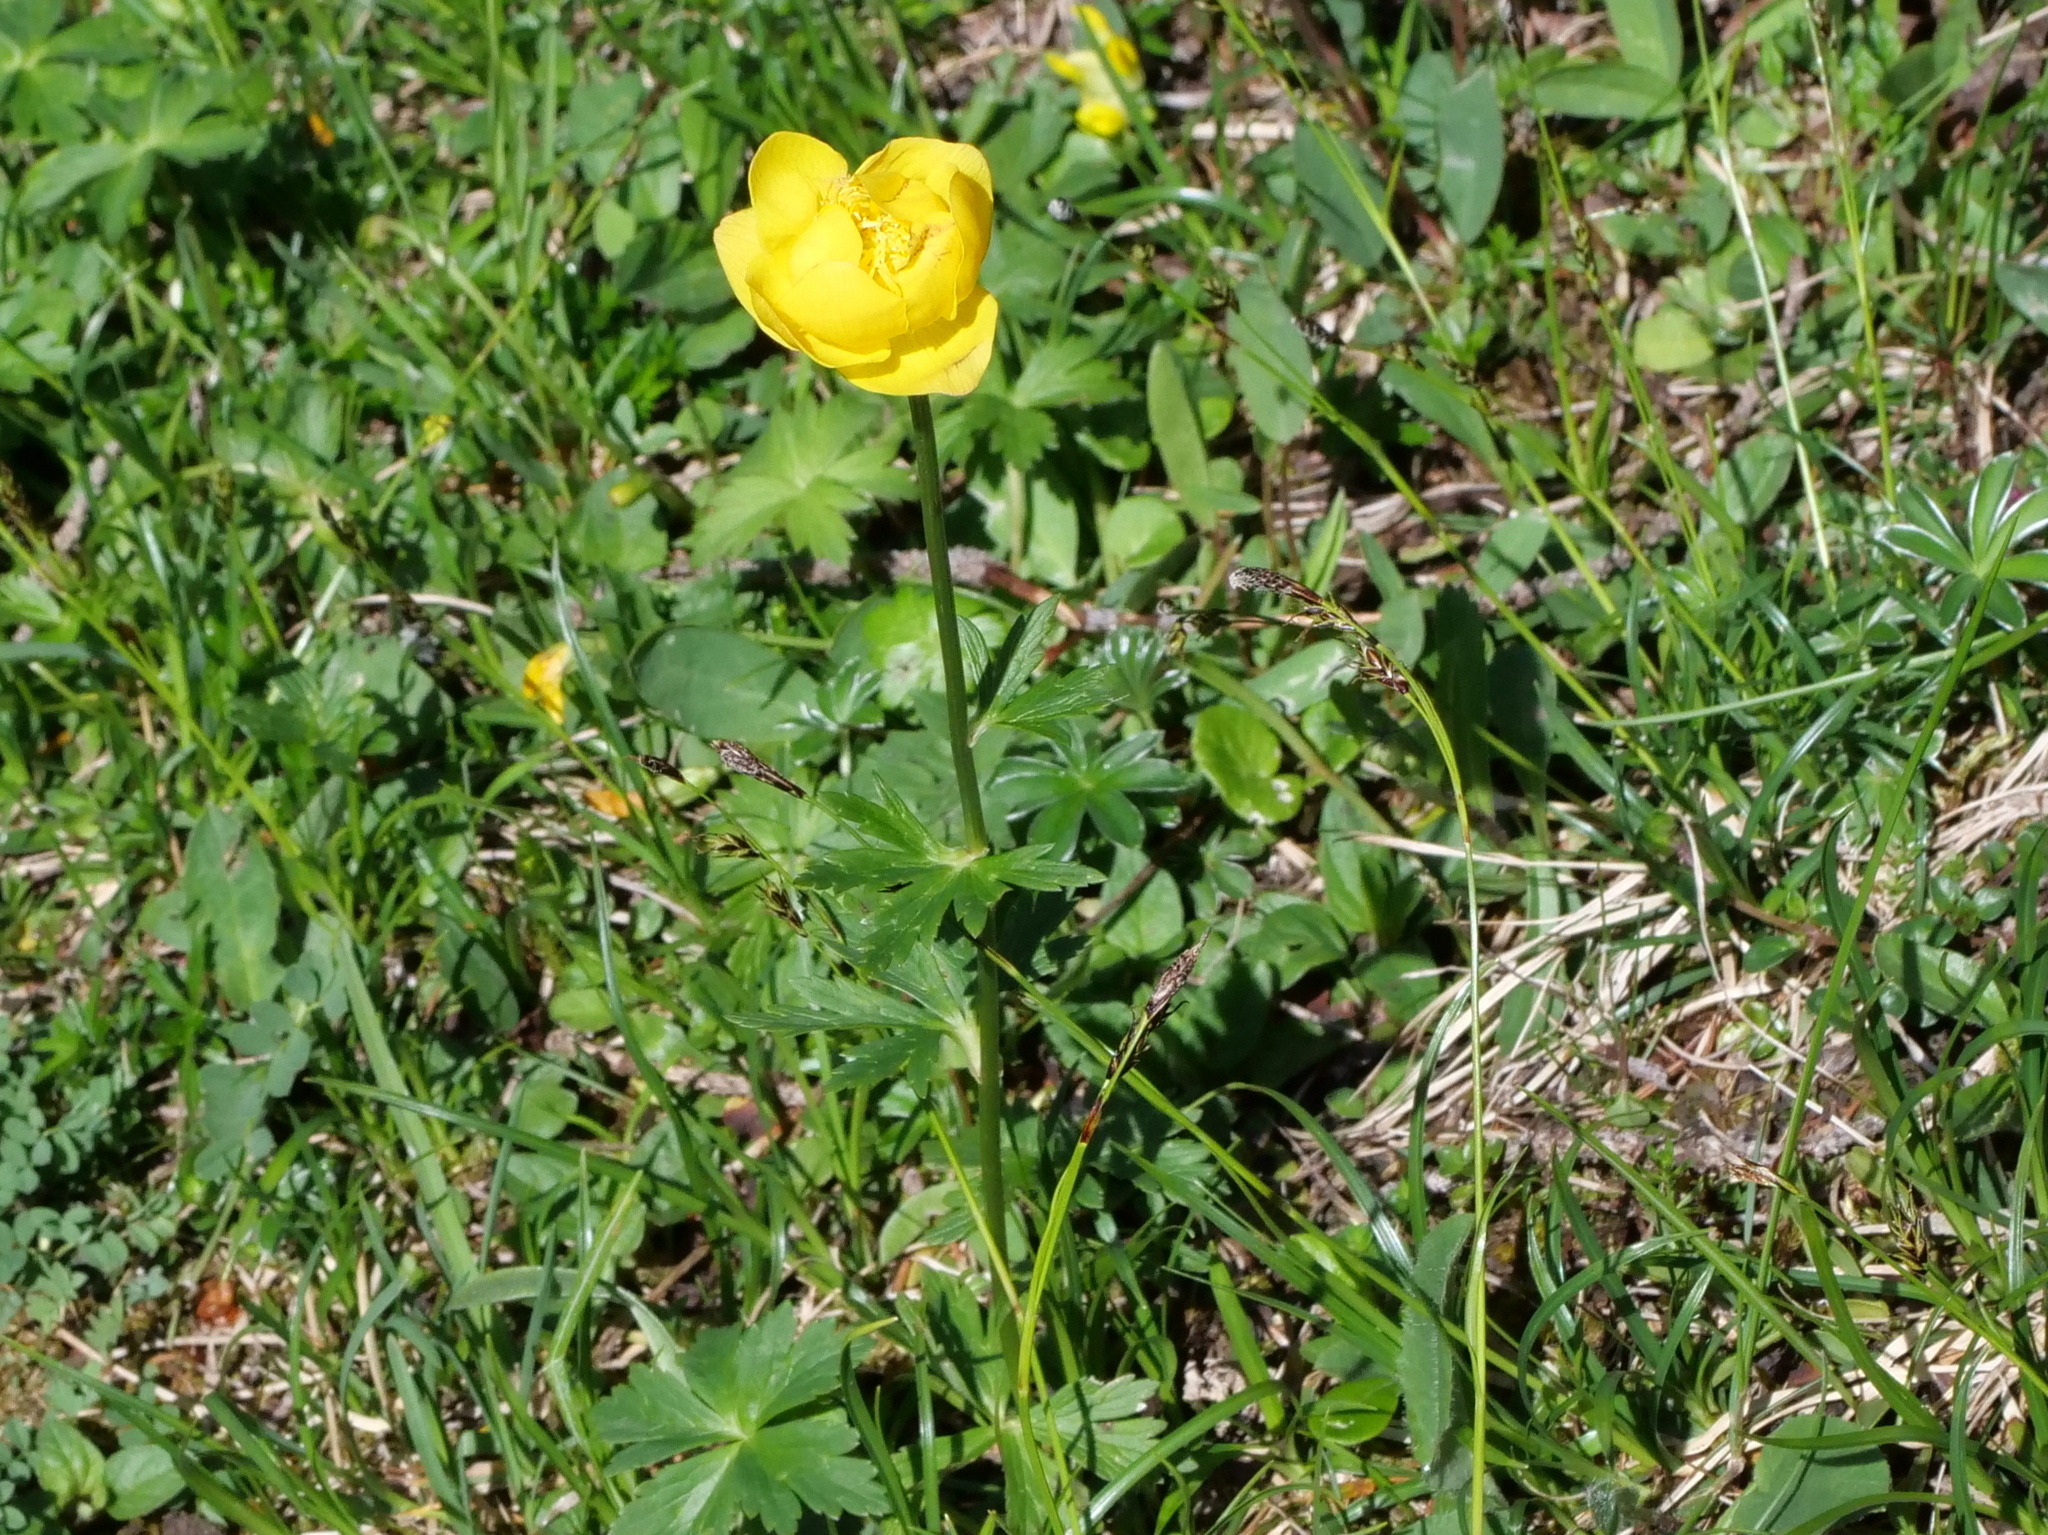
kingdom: Plantae
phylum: Tracheophyta
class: Magnoliopsida
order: Ranunculales
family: Ranunculaceae
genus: Trollius
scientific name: Trollius europaeus
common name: European globeflower
